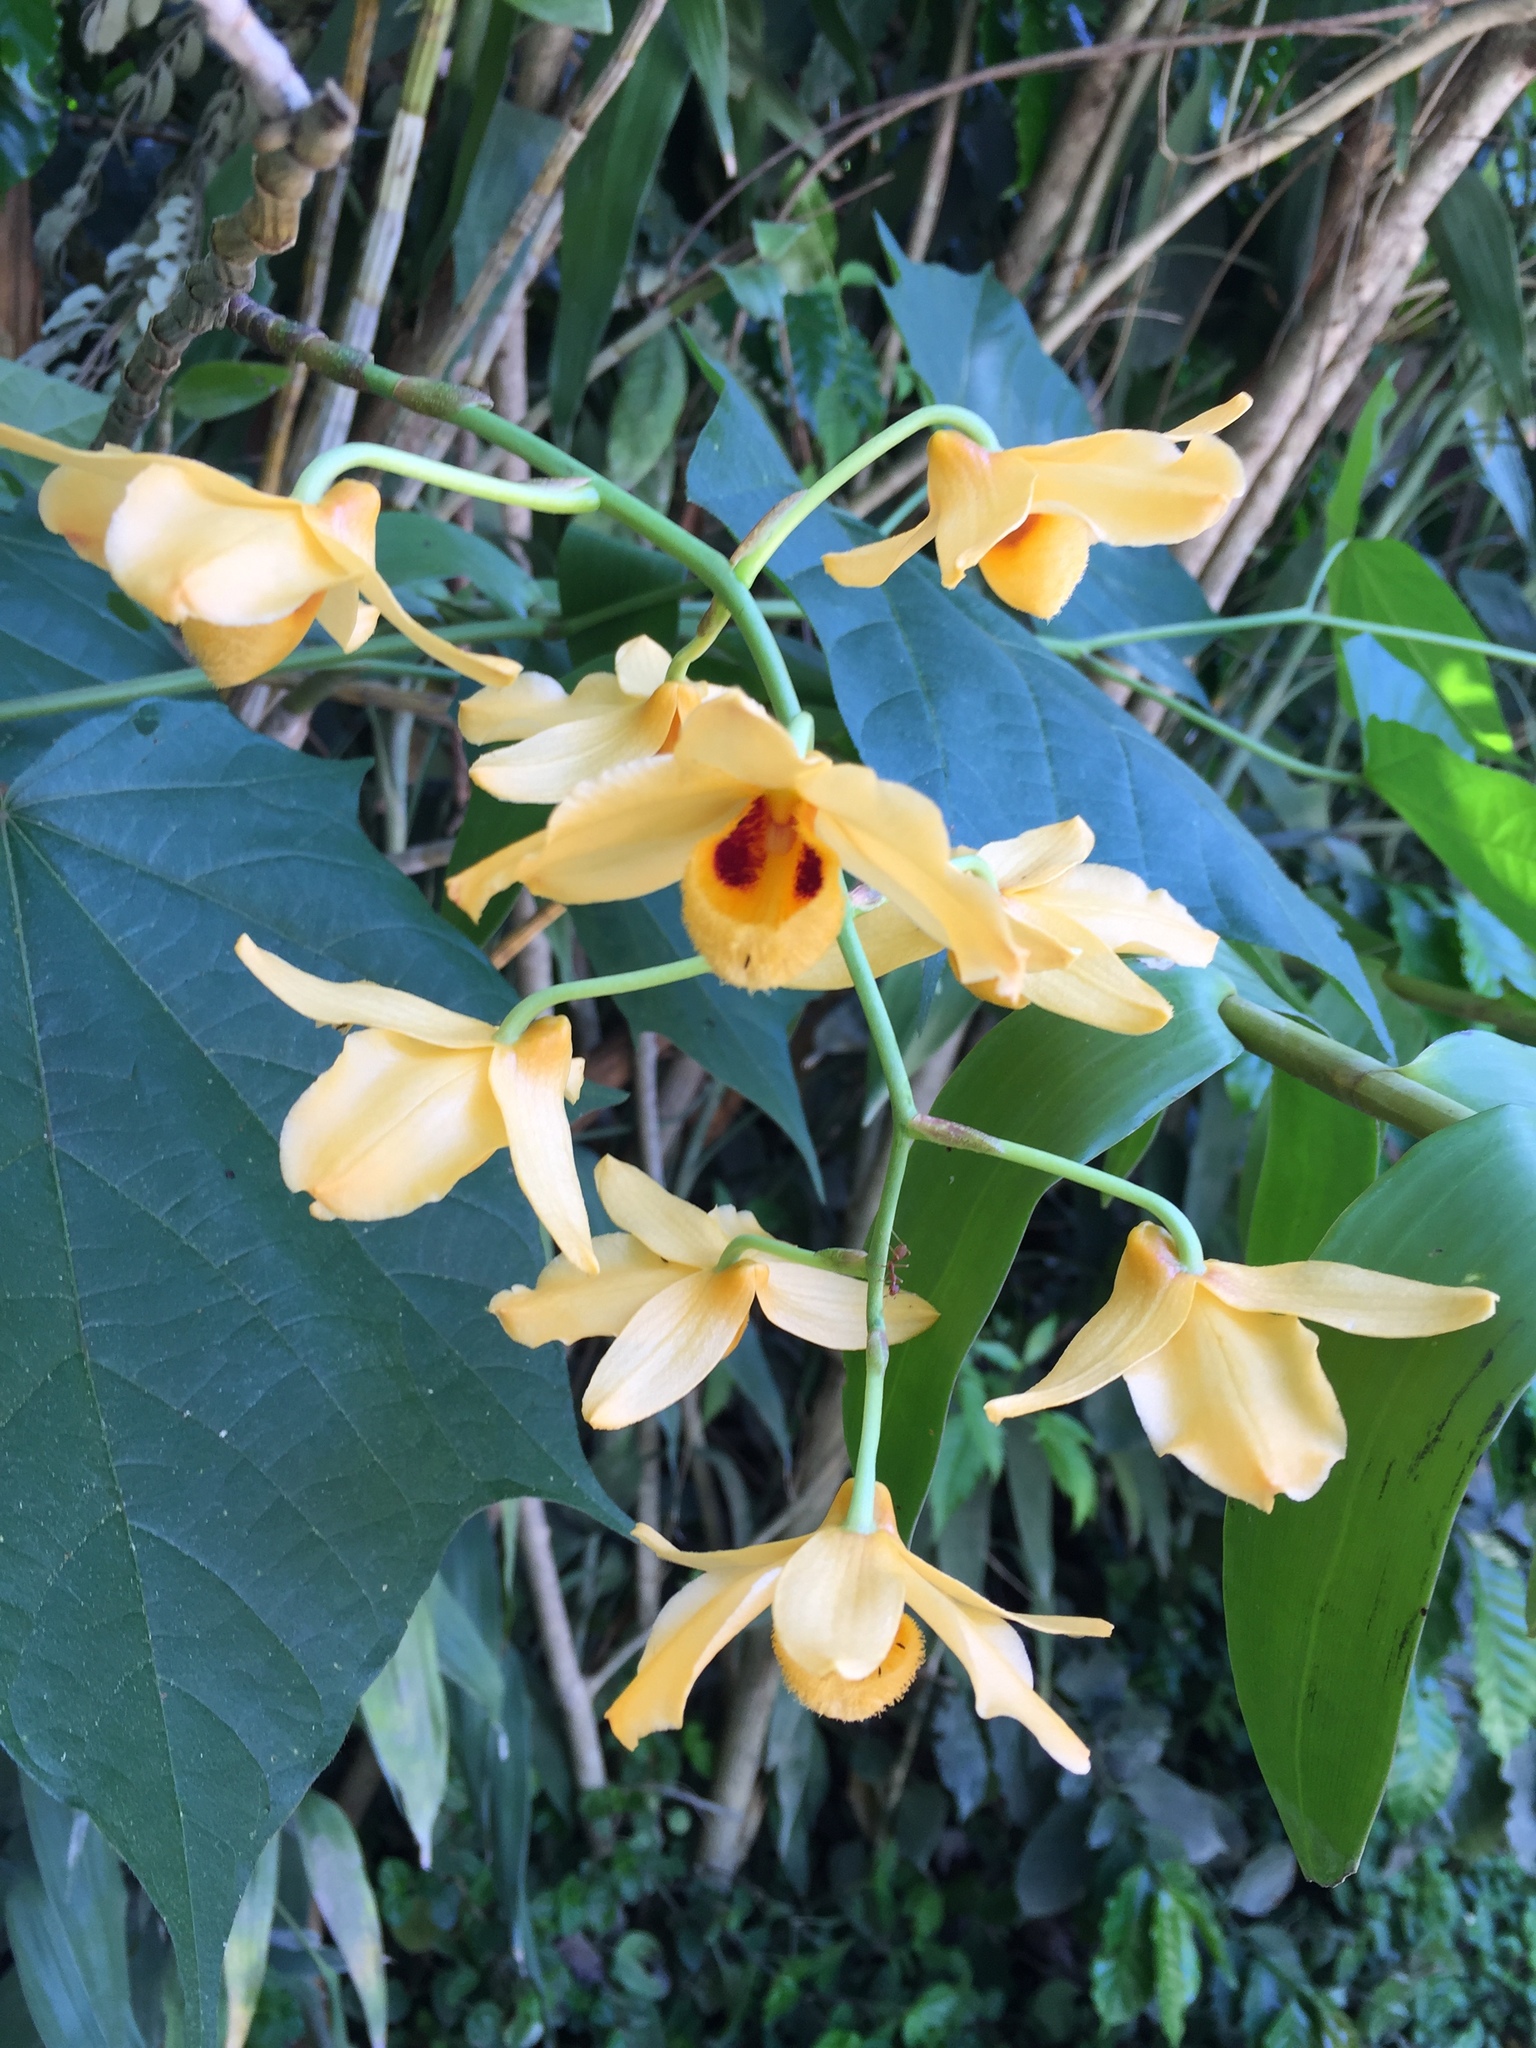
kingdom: Plantae
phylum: Tracheophyta
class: Liliopsida
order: Asparagales
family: Orchidaceae
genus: Dendrobium
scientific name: Dendrobium moschatum
